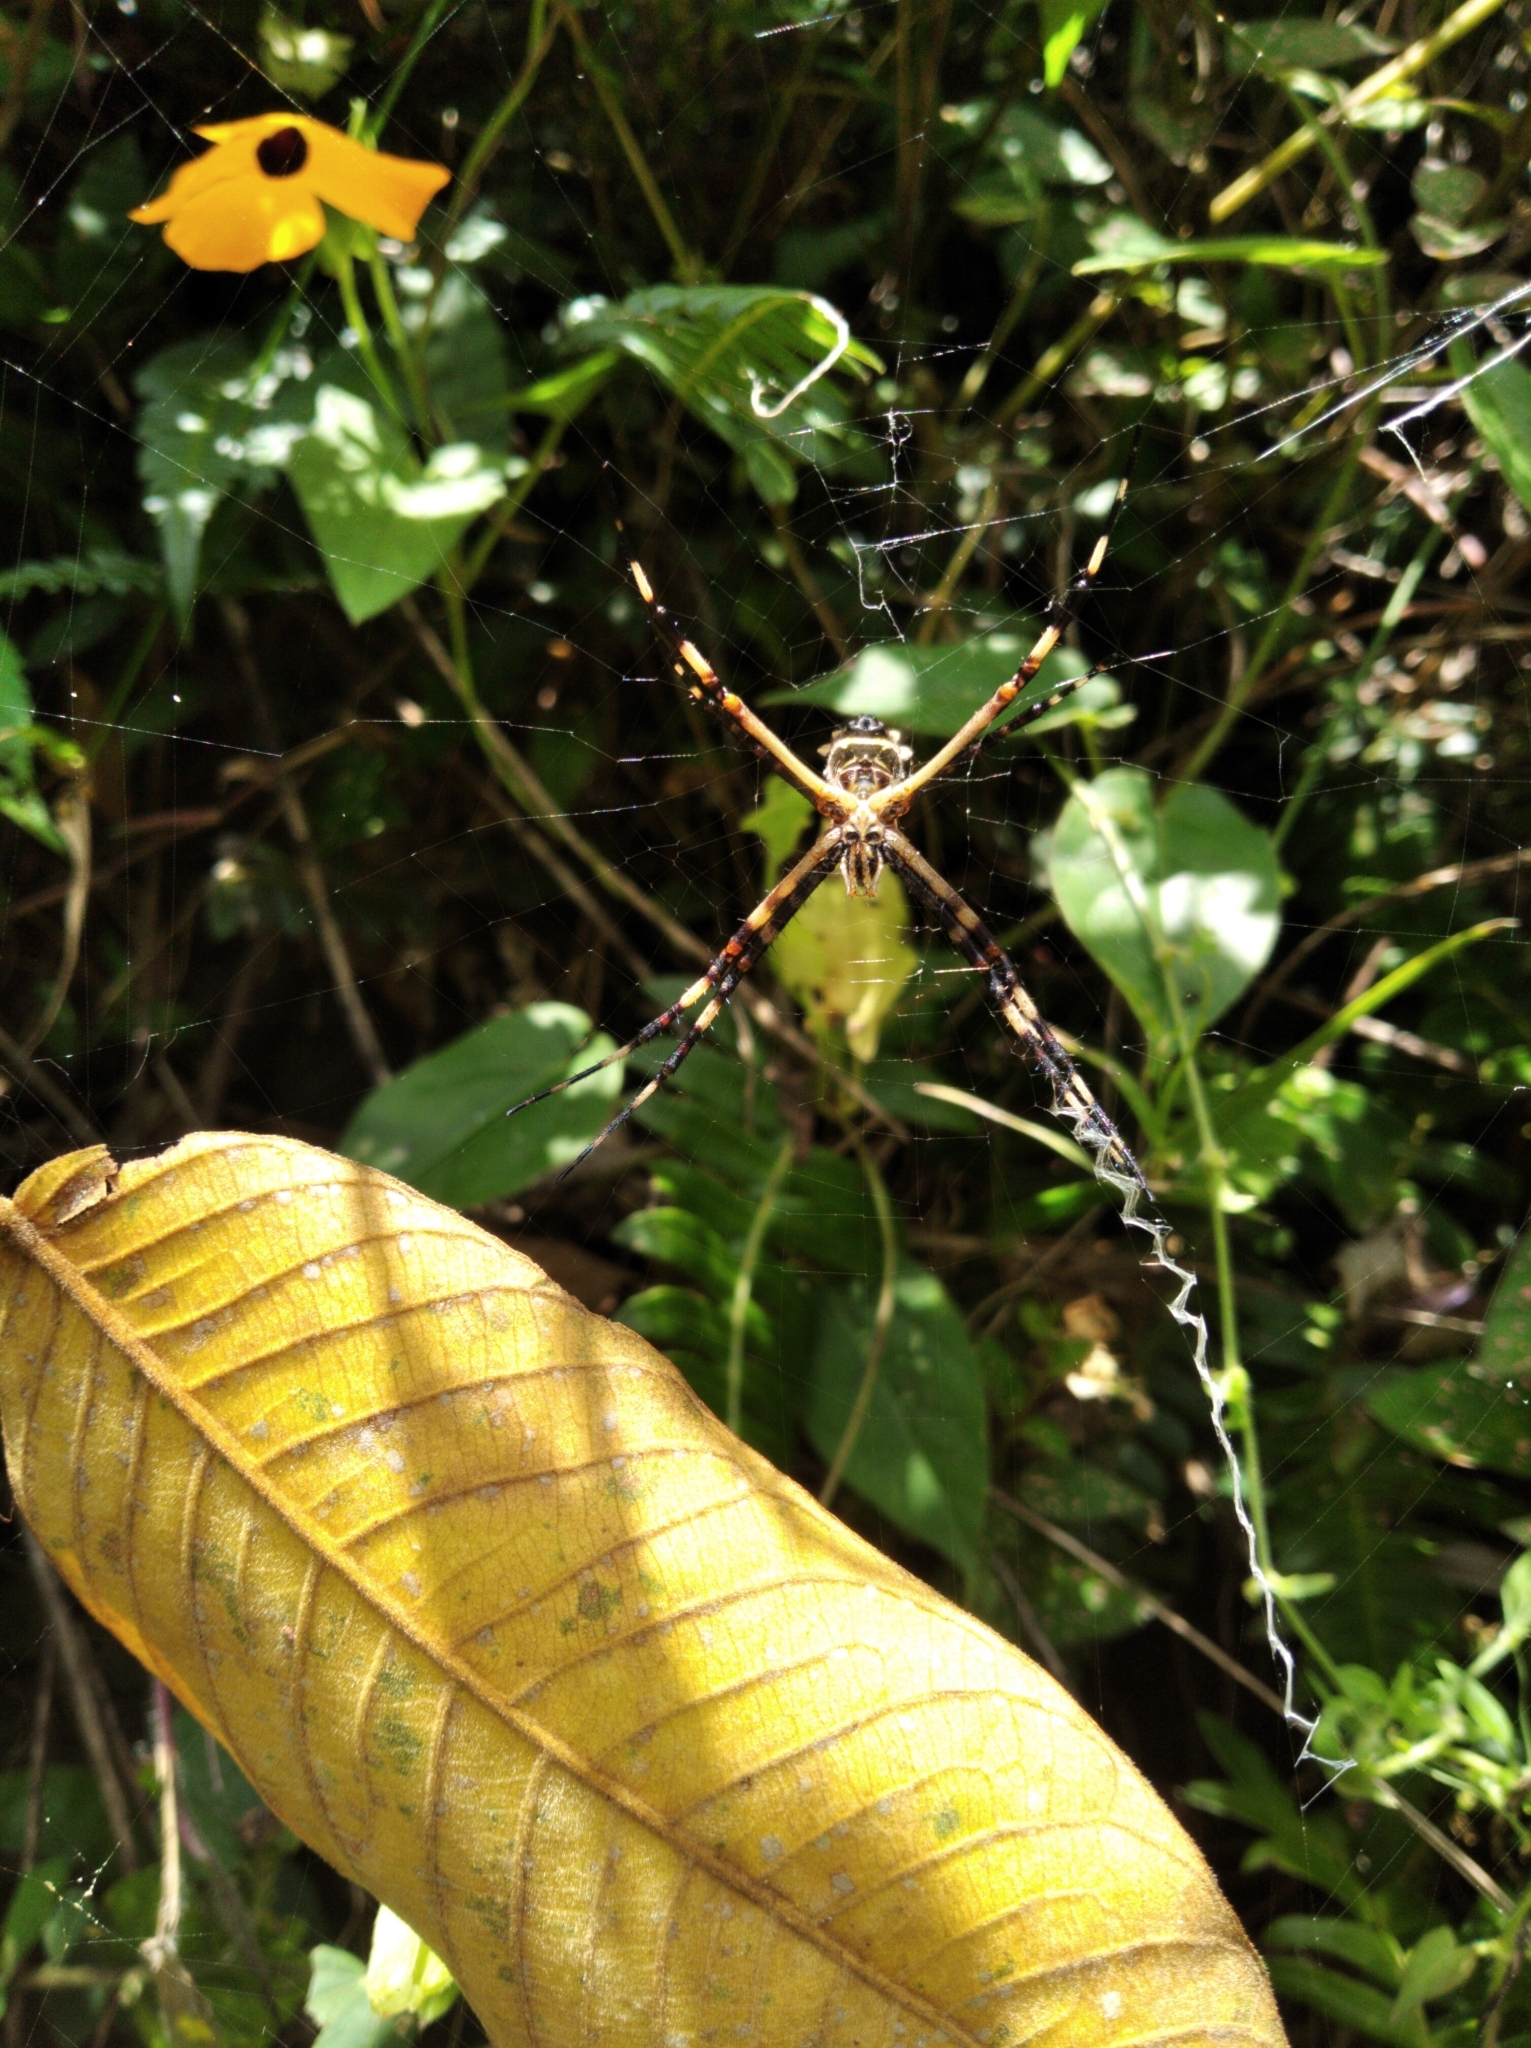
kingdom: Animalia
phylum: Arthropoda
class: Arachnida
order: Araneae
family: Araneidae
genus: Argiope
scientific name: Argiope argentata
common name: Orb weavers
